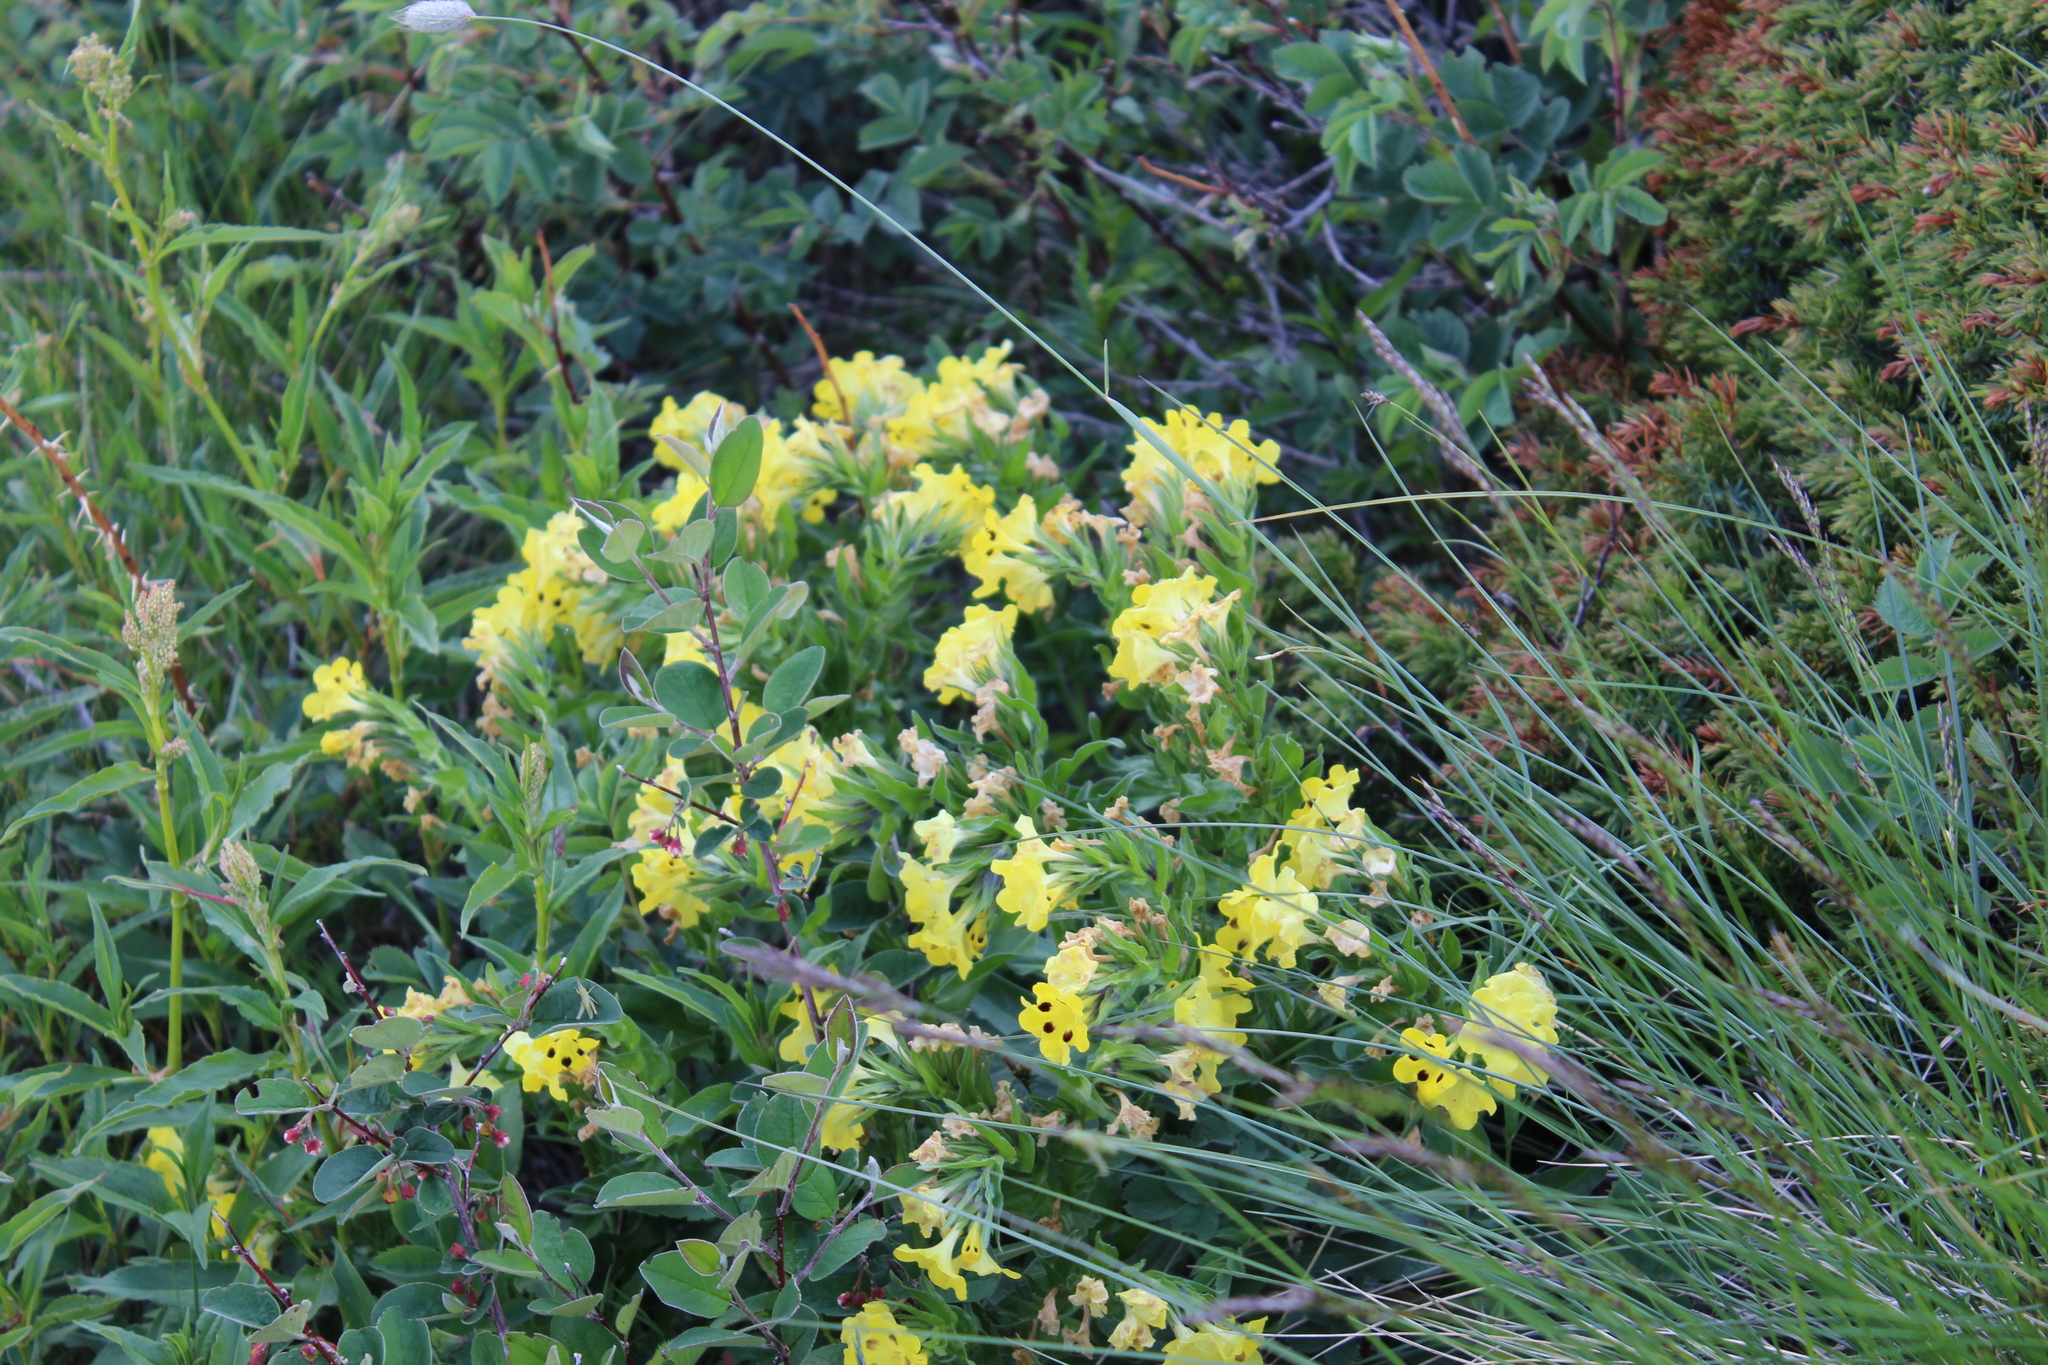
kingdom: Plantae
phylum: Tracheophyta
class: Magnoliopsida
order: Boraginales
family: Boraginaceae
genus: Huynhia
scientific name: Huynhia pulchra
